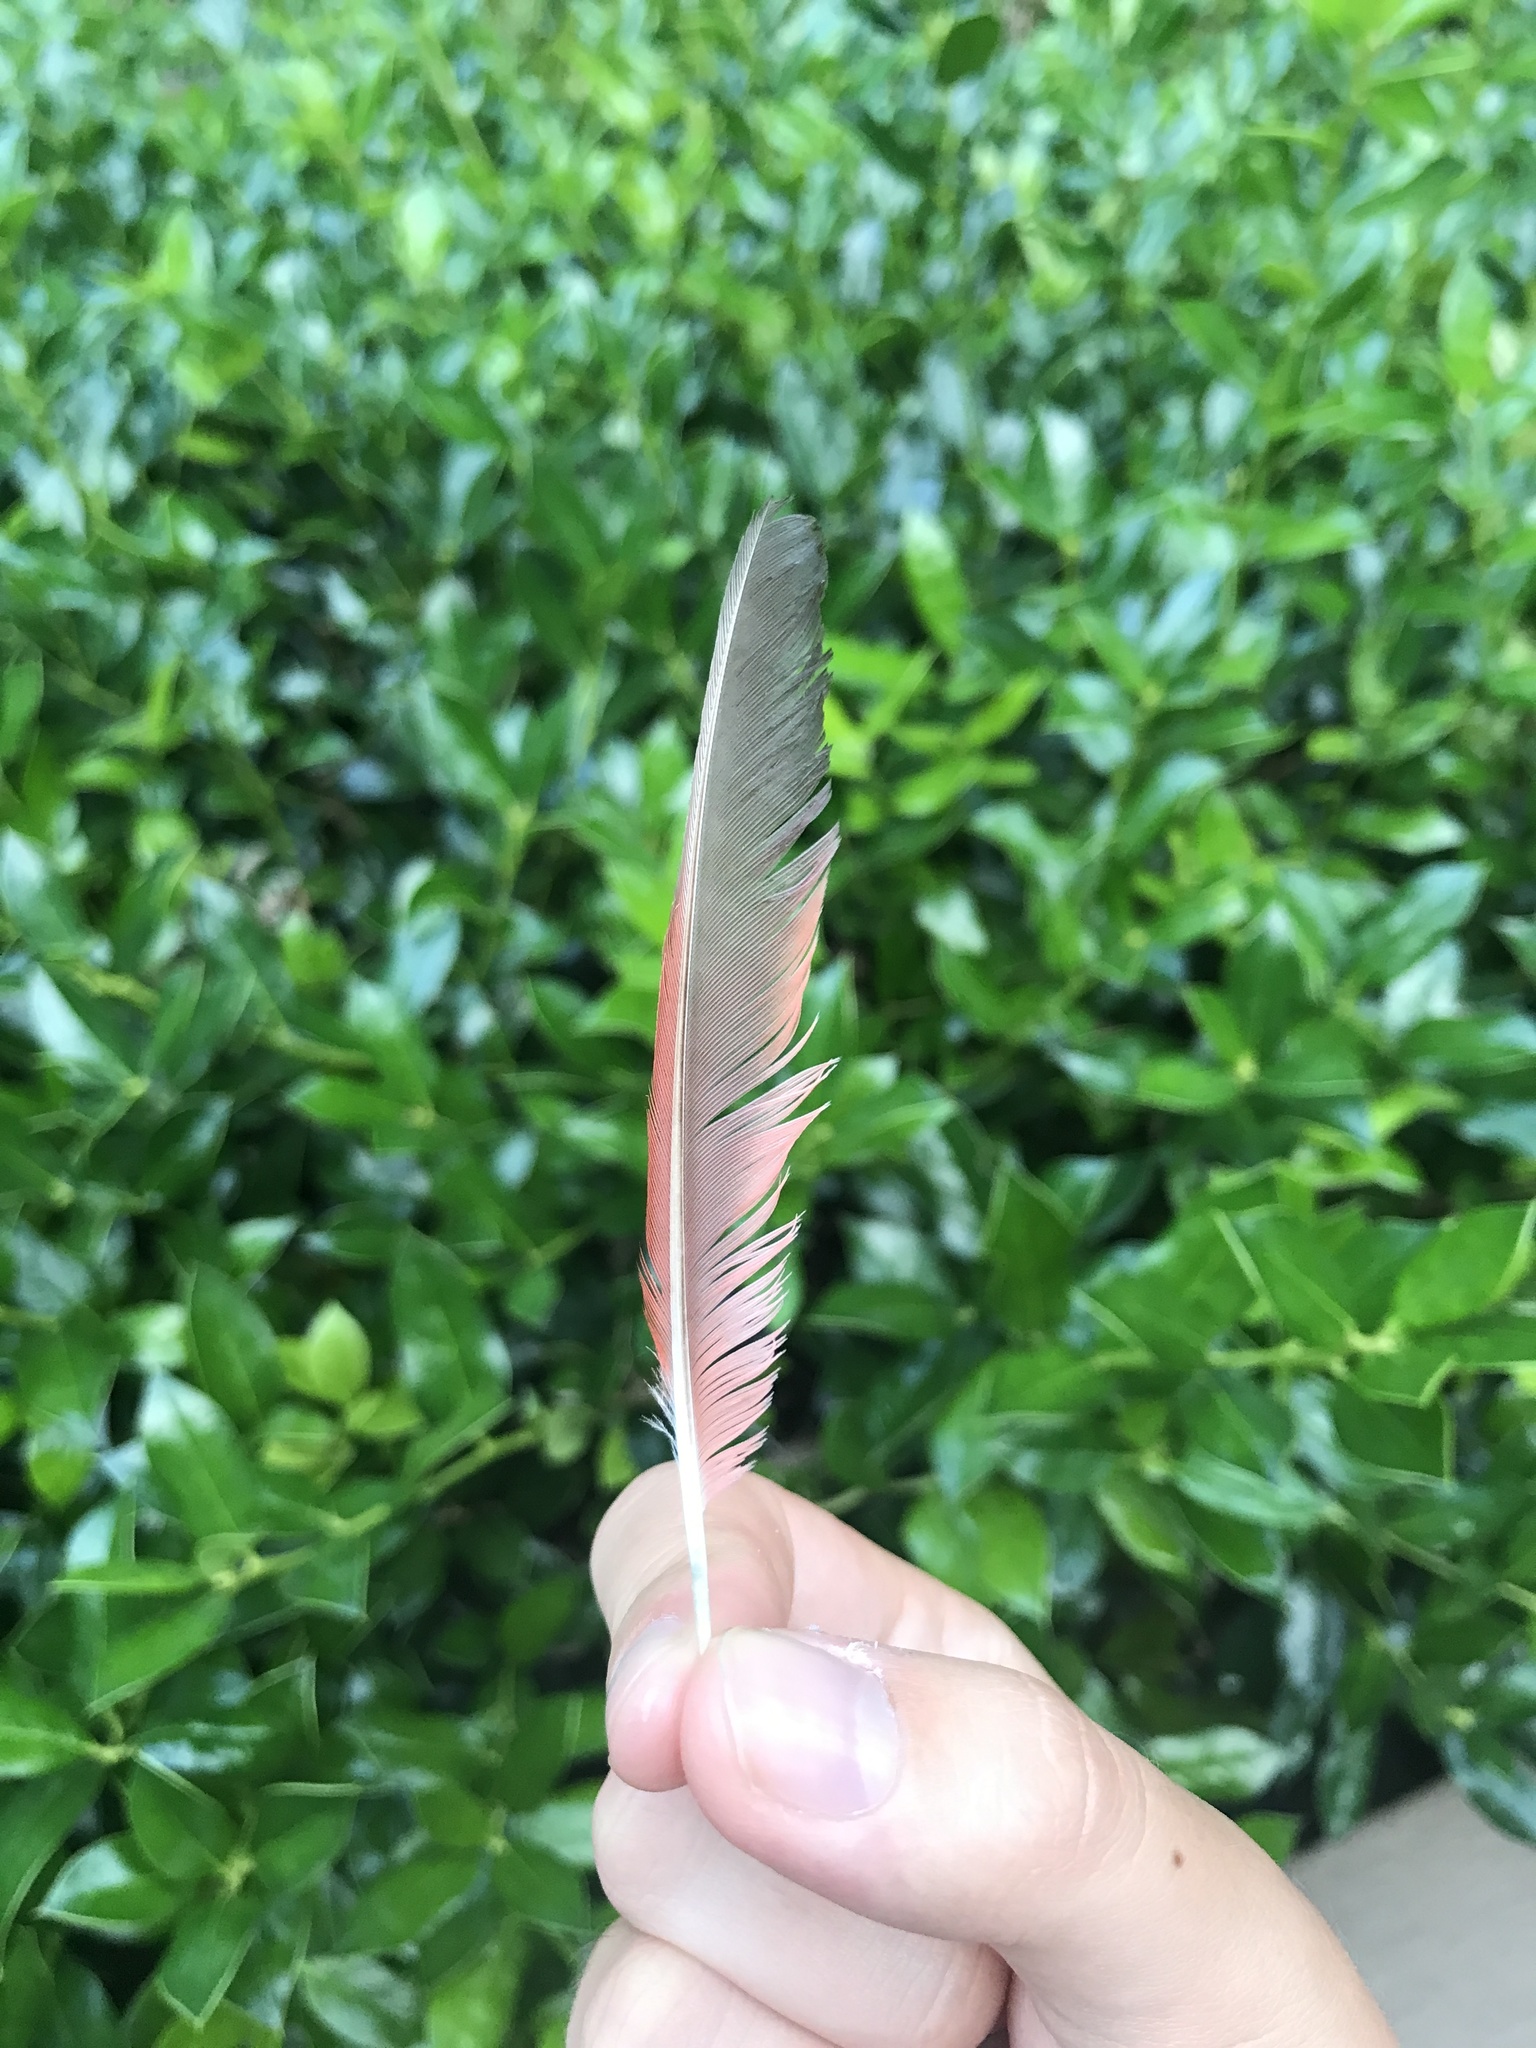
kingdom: Animalia
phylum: Chordata
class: Aves
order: Passeriformes
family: Cardinalidae
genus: Cardinalis
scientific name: Cardinalis cardinalis
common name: Northern cardinal
